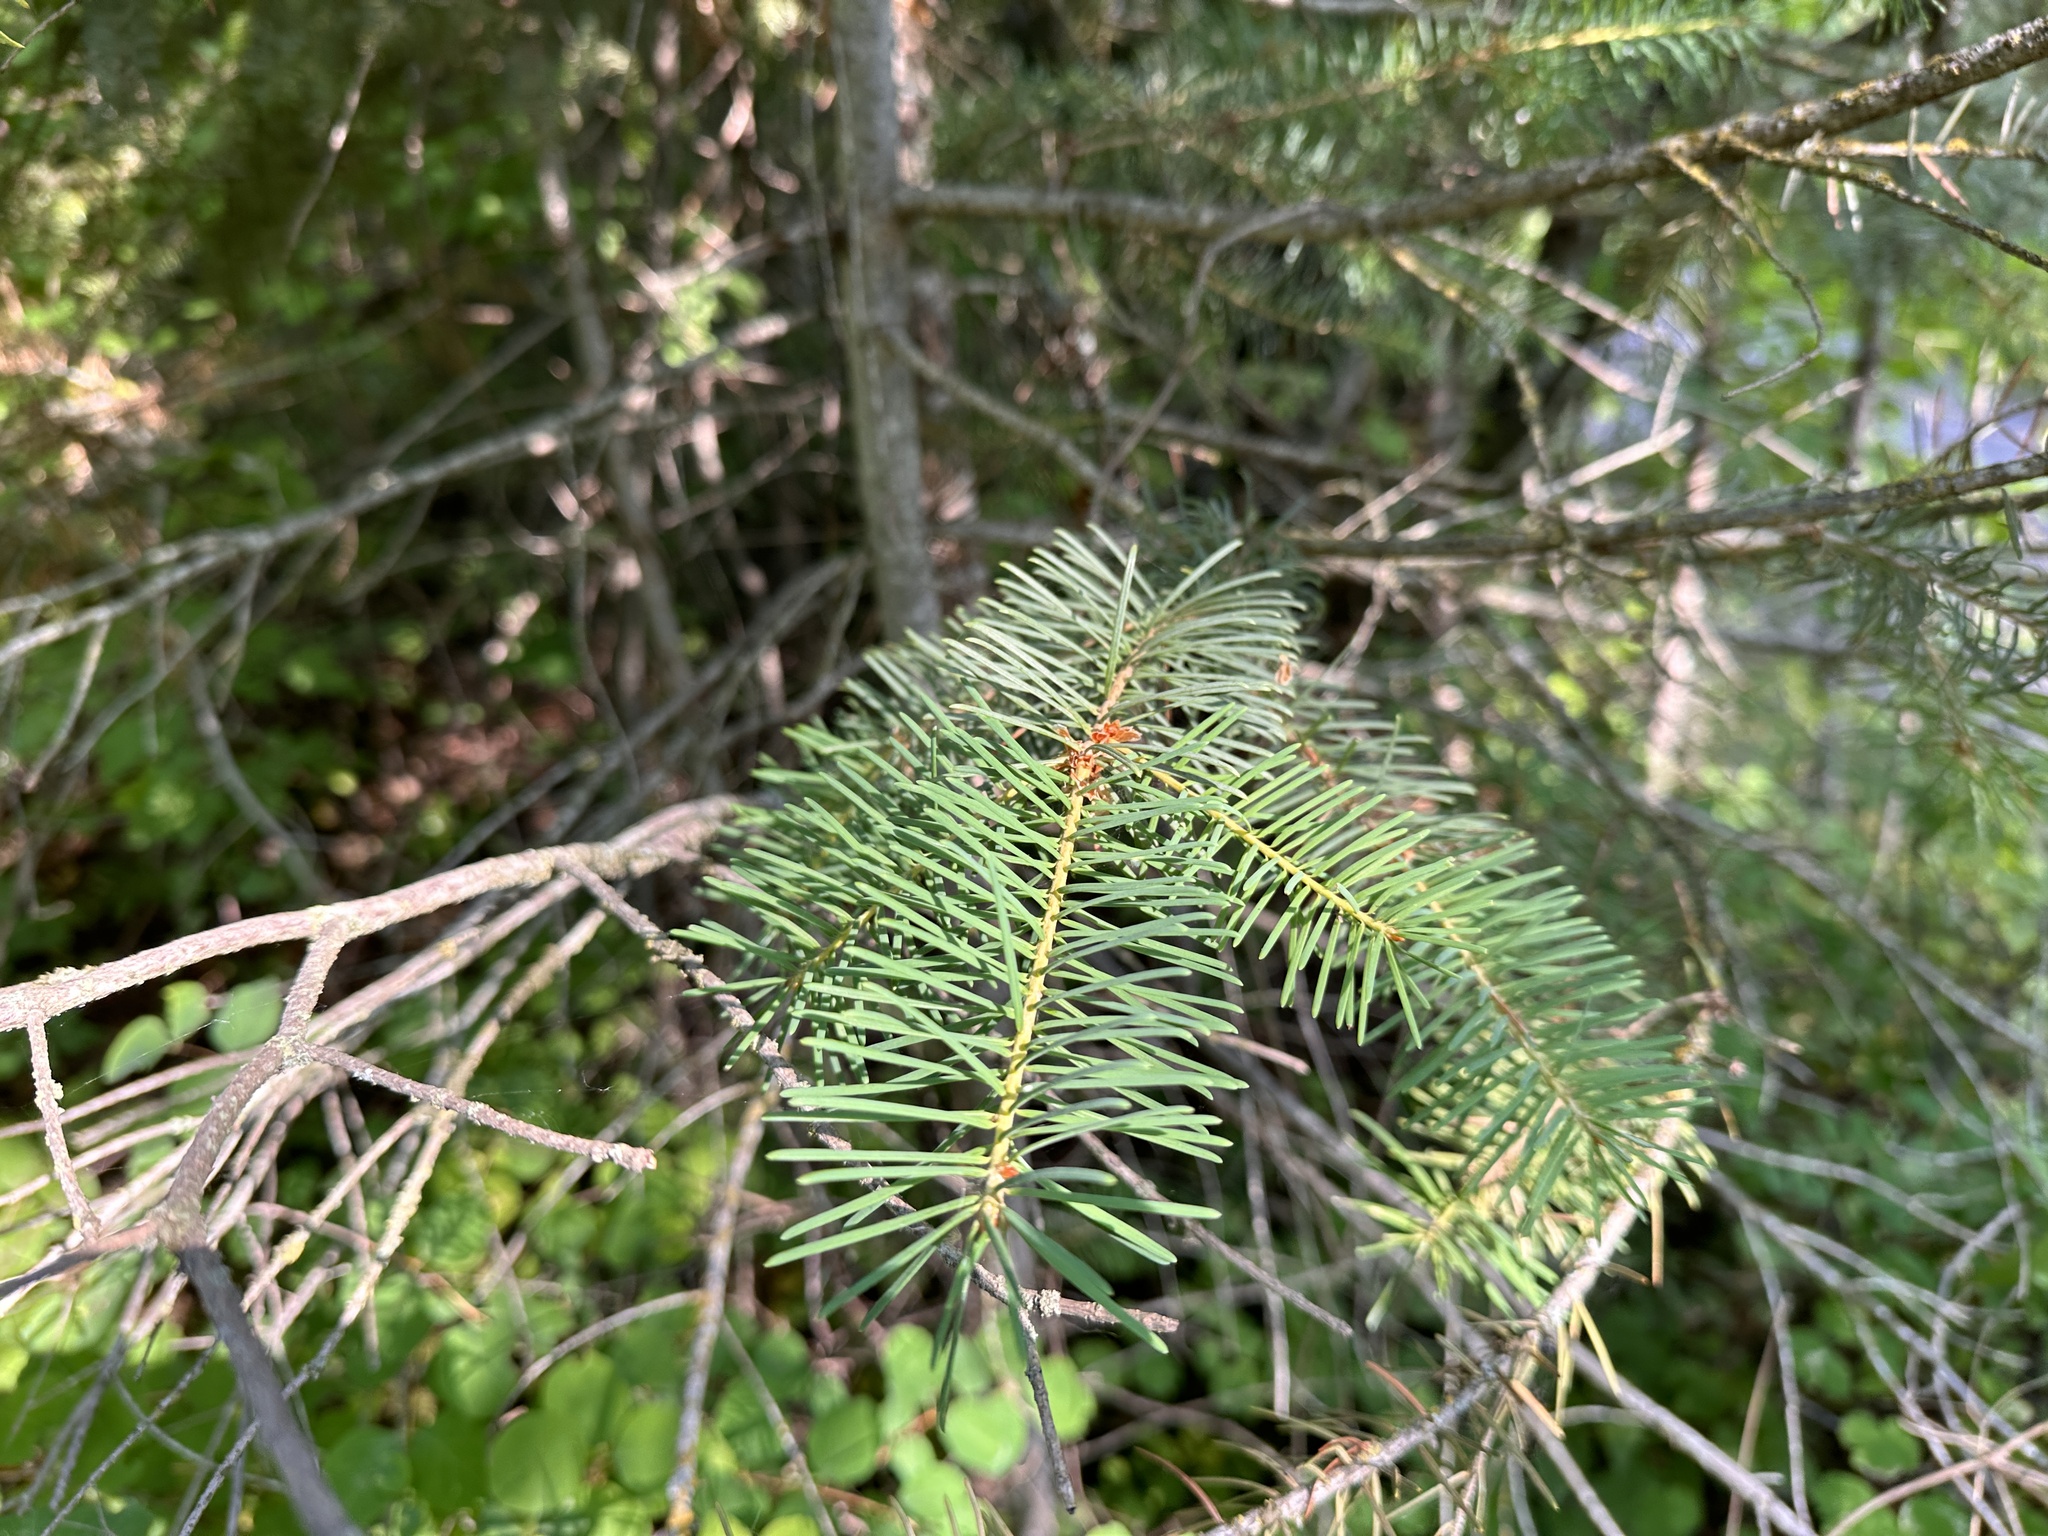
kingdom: Plantae
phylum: Tracheophyta
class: Pinopsida
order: Pinales
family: Pinaceae
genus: Pseudotsuga
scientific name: Pseudotsuga menziesii
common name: Douglas fir
